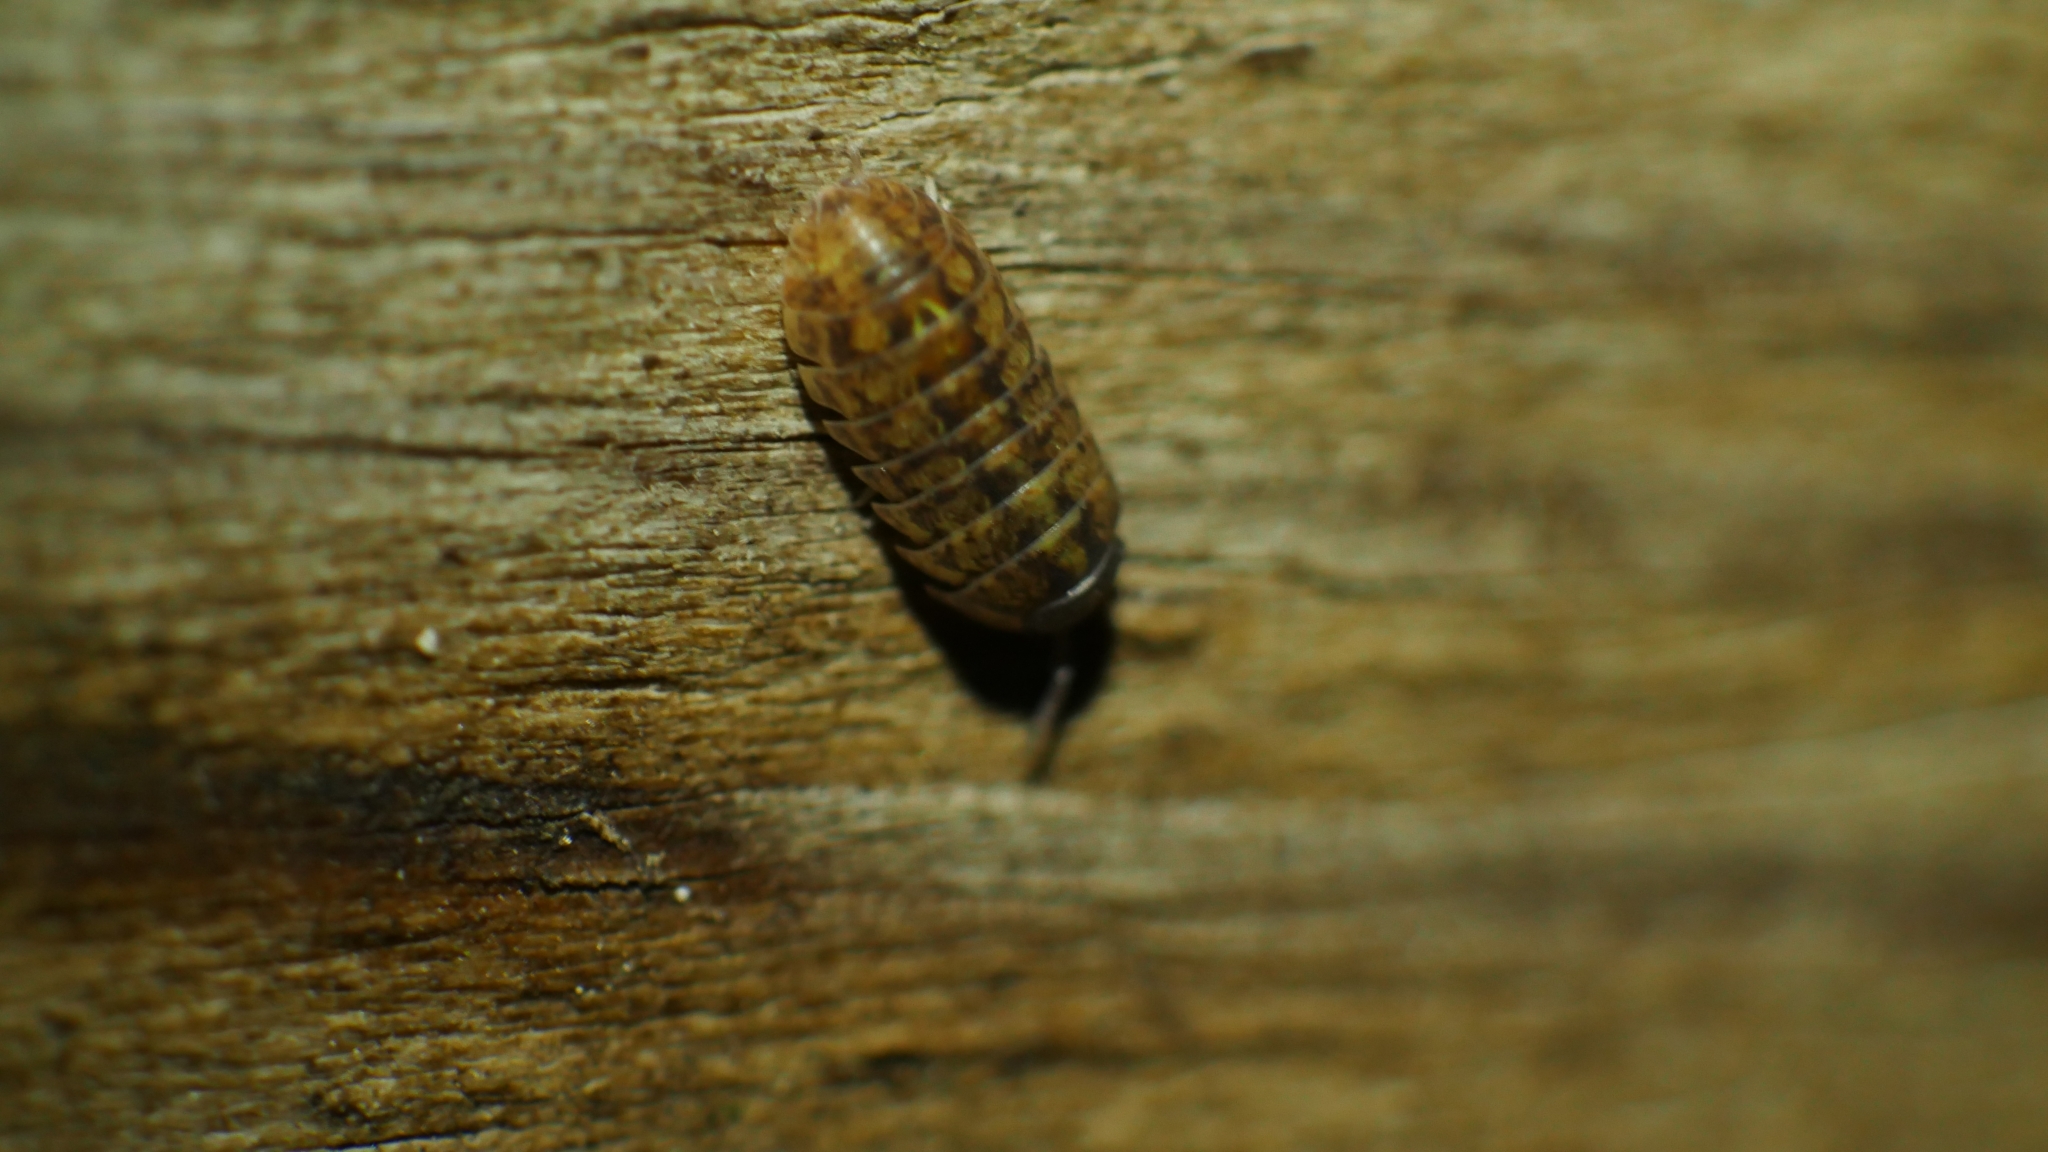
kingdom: Animalia
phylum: Arthropoda
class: Malacostraca
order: Isopoda
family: Armadillidiidae
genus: Armadillidium
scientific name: Armadillidium vulgare
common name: Common pill woodlouse
